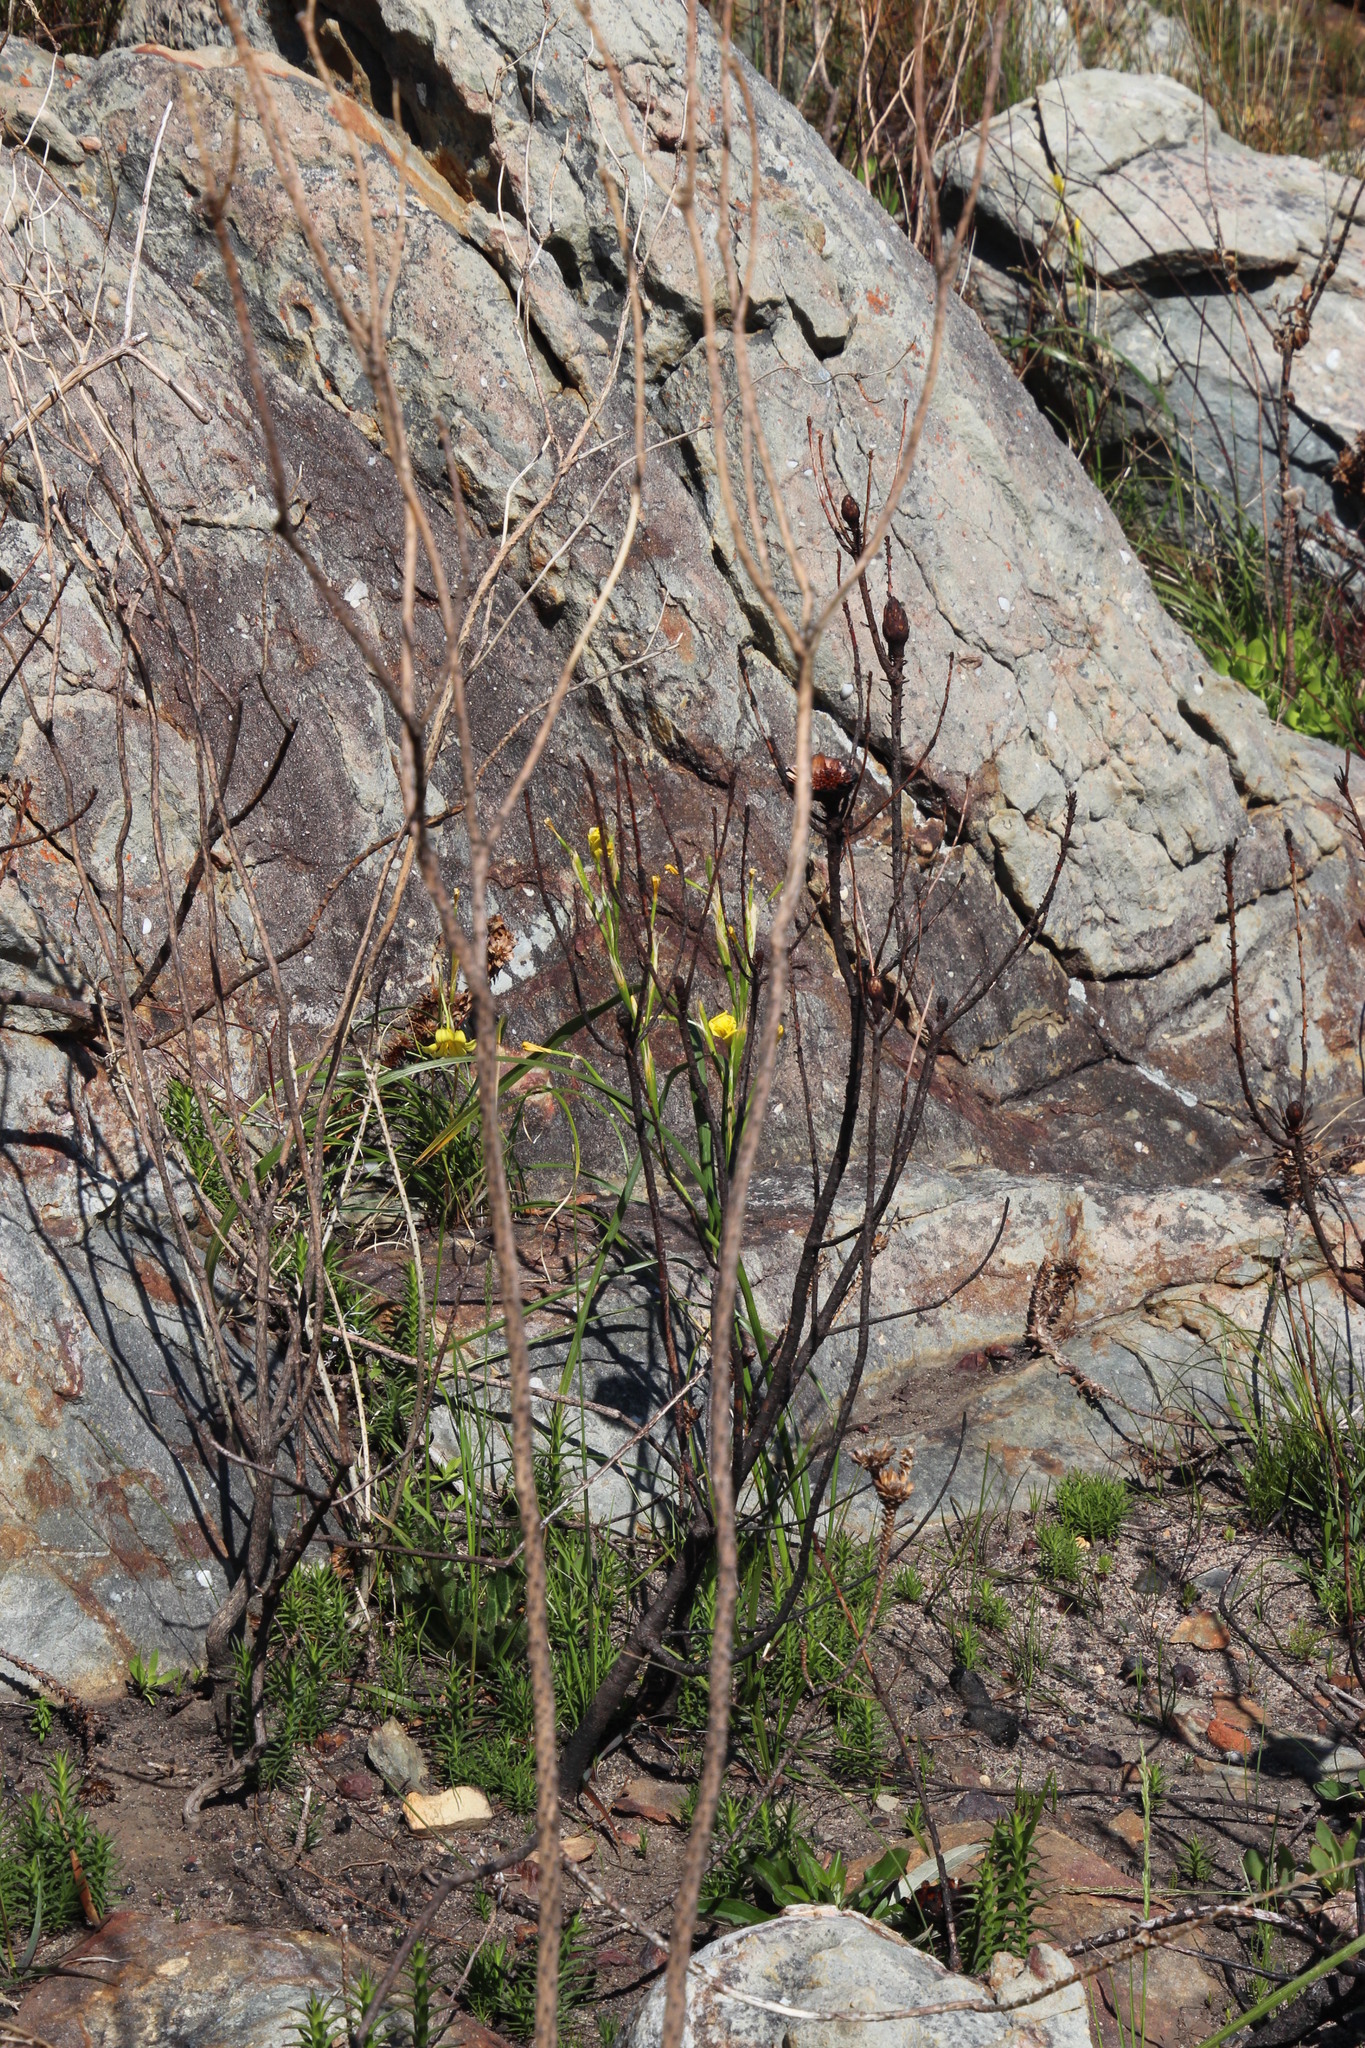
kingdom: Plantae
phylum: Tracheophyta
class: Liliopsida
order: Asparagales
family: Iridaceae
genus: Moraea
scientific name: Moraea ochroleuca
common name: Red tulp
